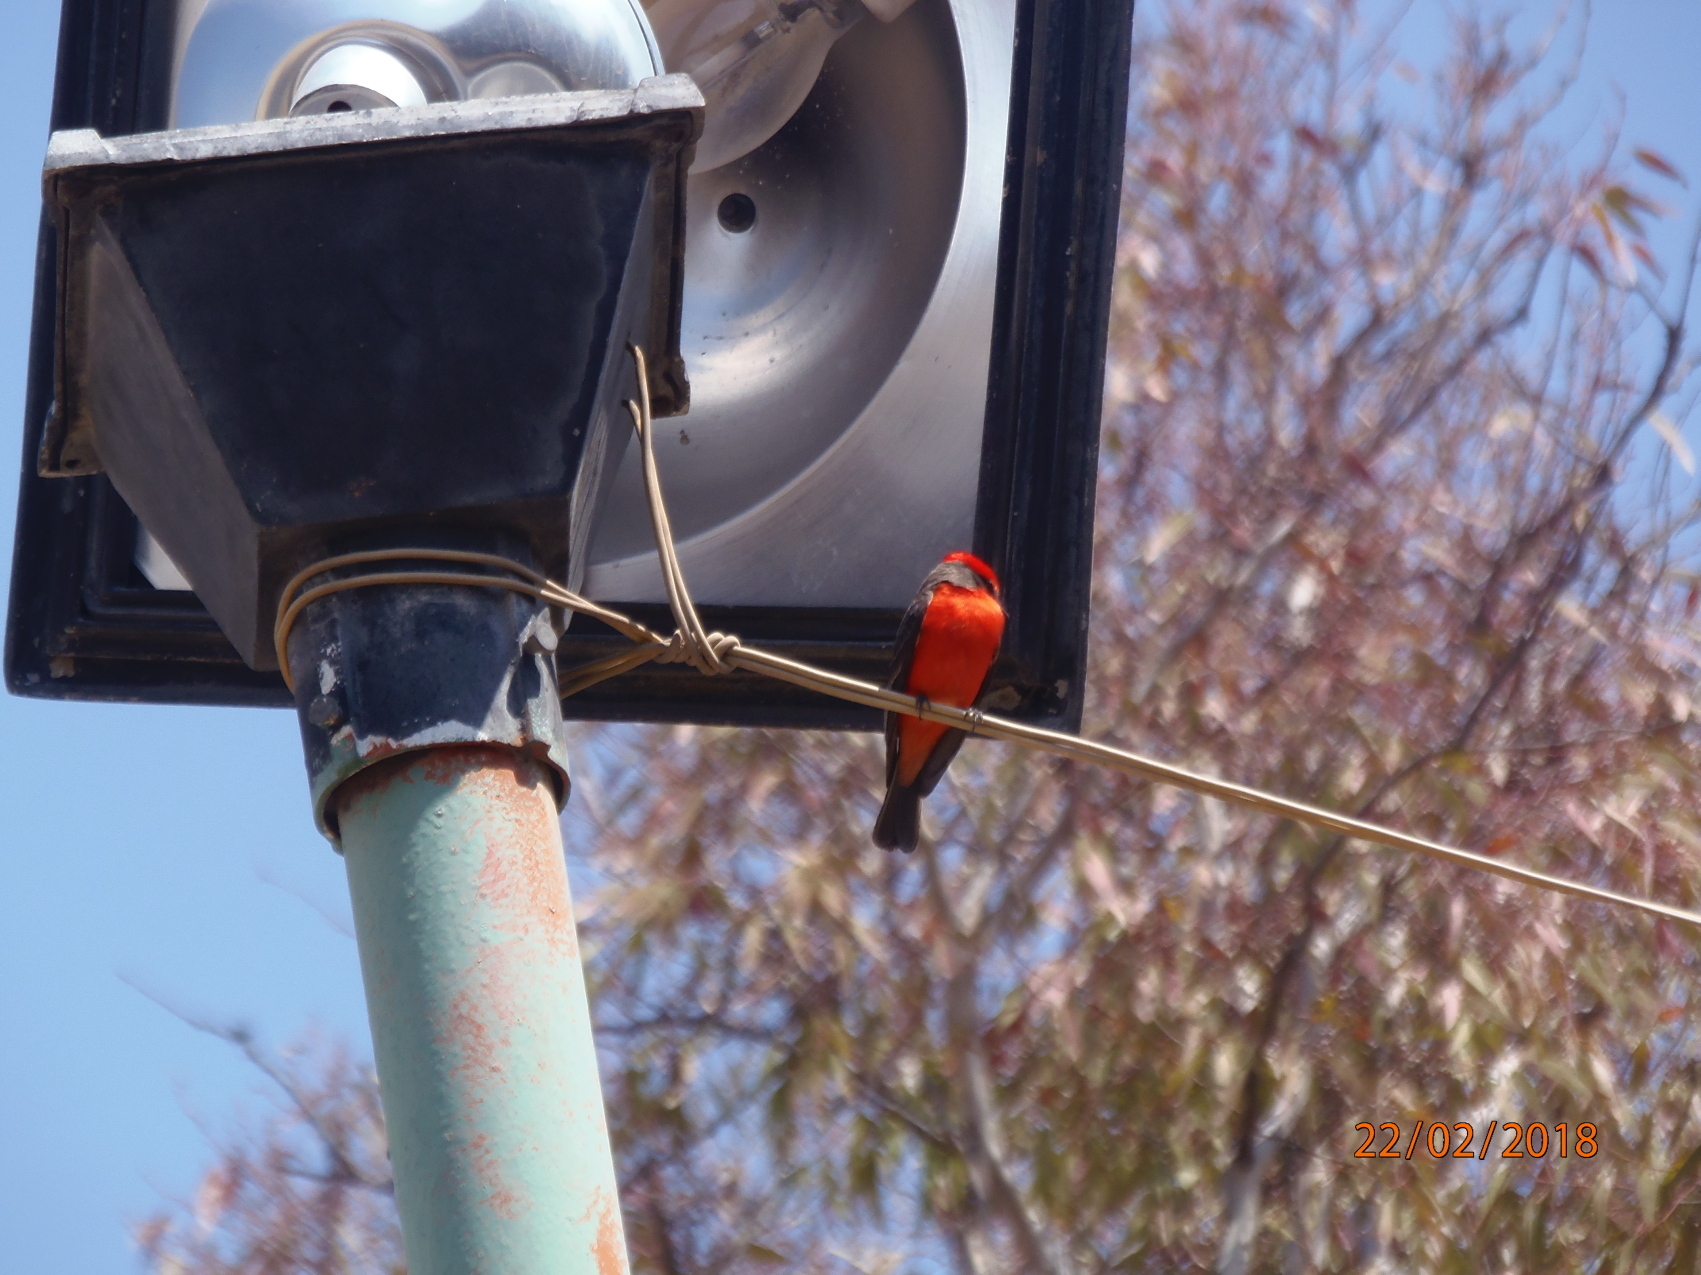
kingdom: Animalia
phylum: Chordata
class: Aves
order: Passeriformes
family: Tyrannidae
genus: Pyrocephalus
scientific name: Pyrocephalus rubinus
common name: Vermilion flycatcher
